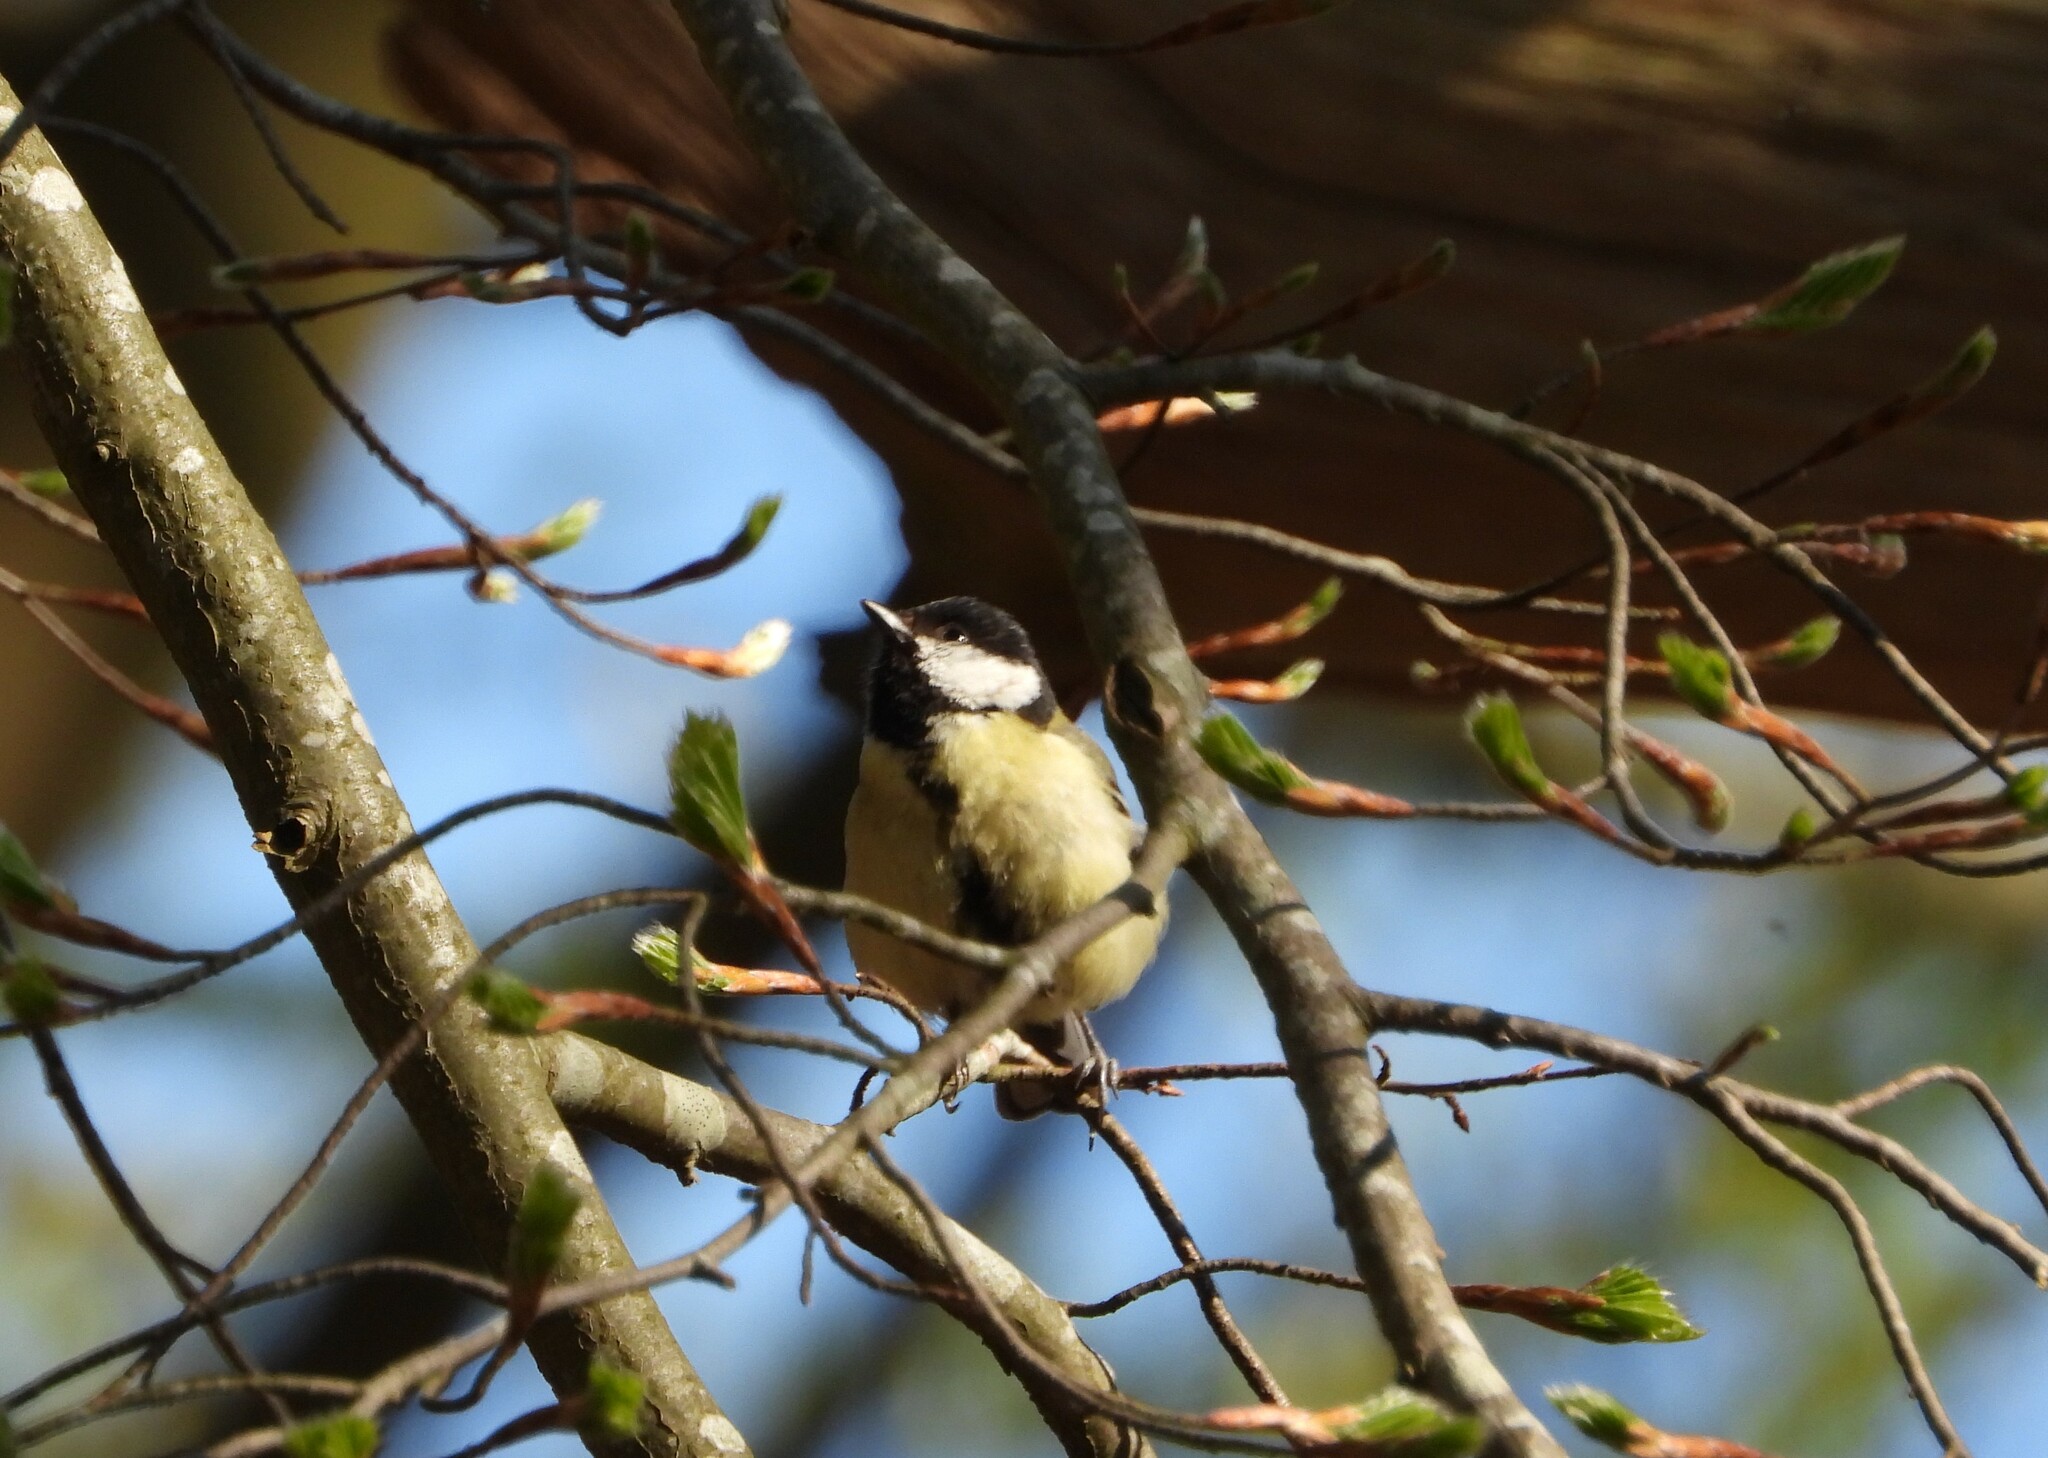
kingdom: Animalia
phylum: Chordata
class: Aves
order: Passeriformes
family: Paridae
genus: Parus
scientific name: Parus major
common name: Great tit
